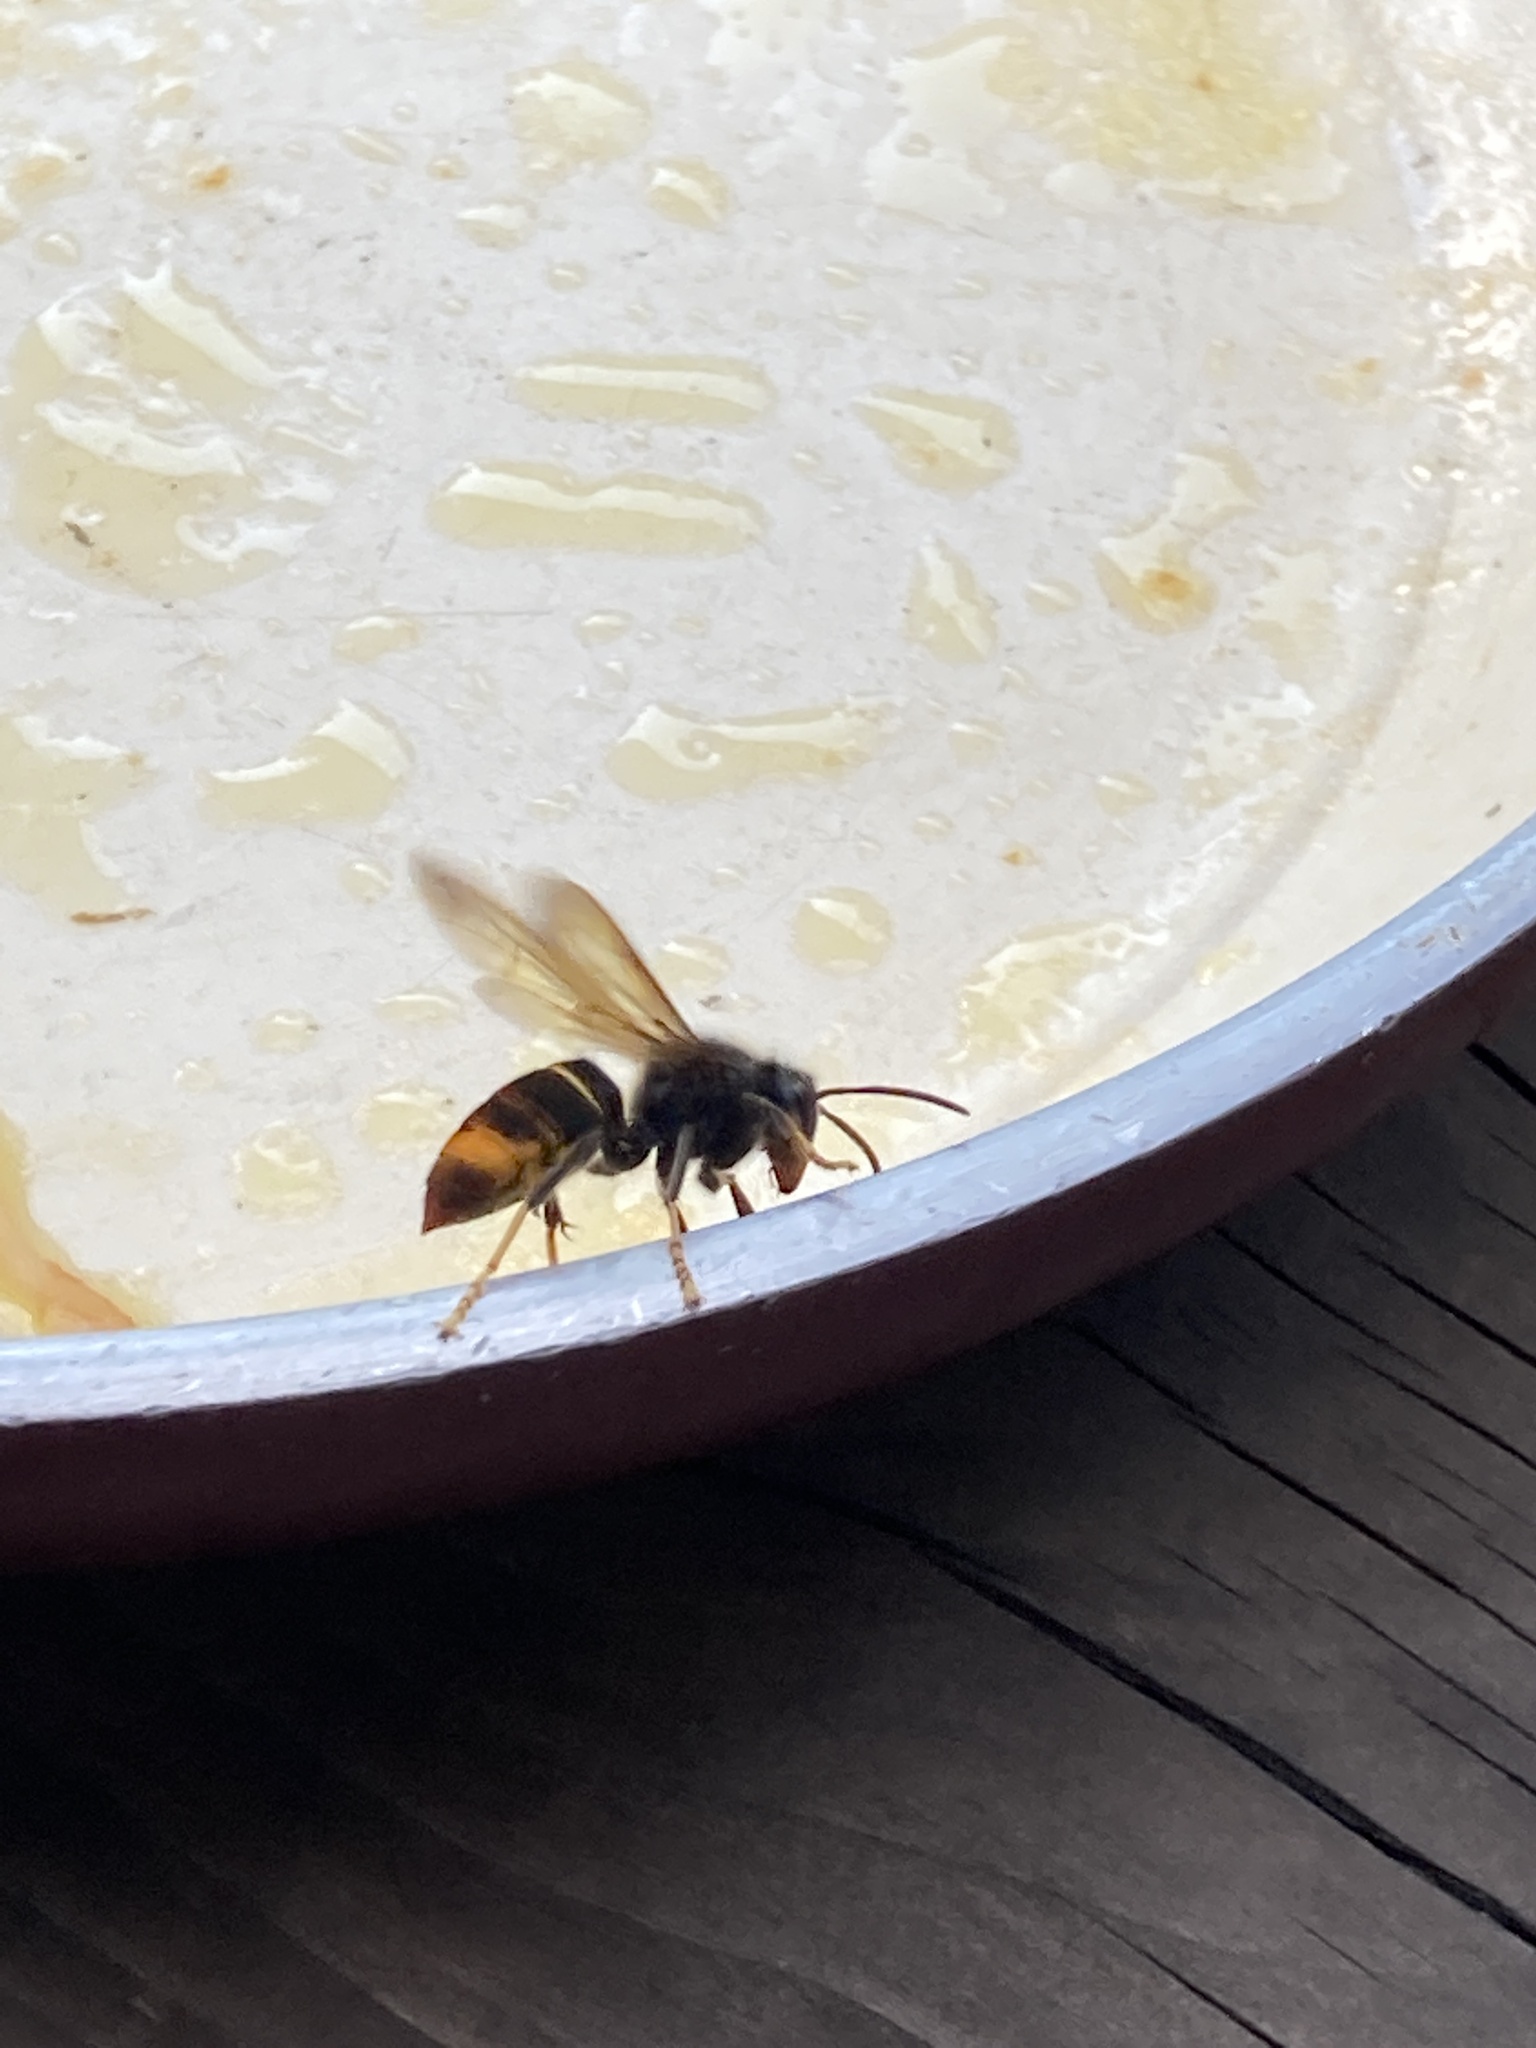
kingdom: Animalia
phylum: Arthropoda
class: Insecta
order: Hymenoptera
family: Vespidae
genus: Vespa
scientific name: Vespa velutina
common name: Asian hornet
